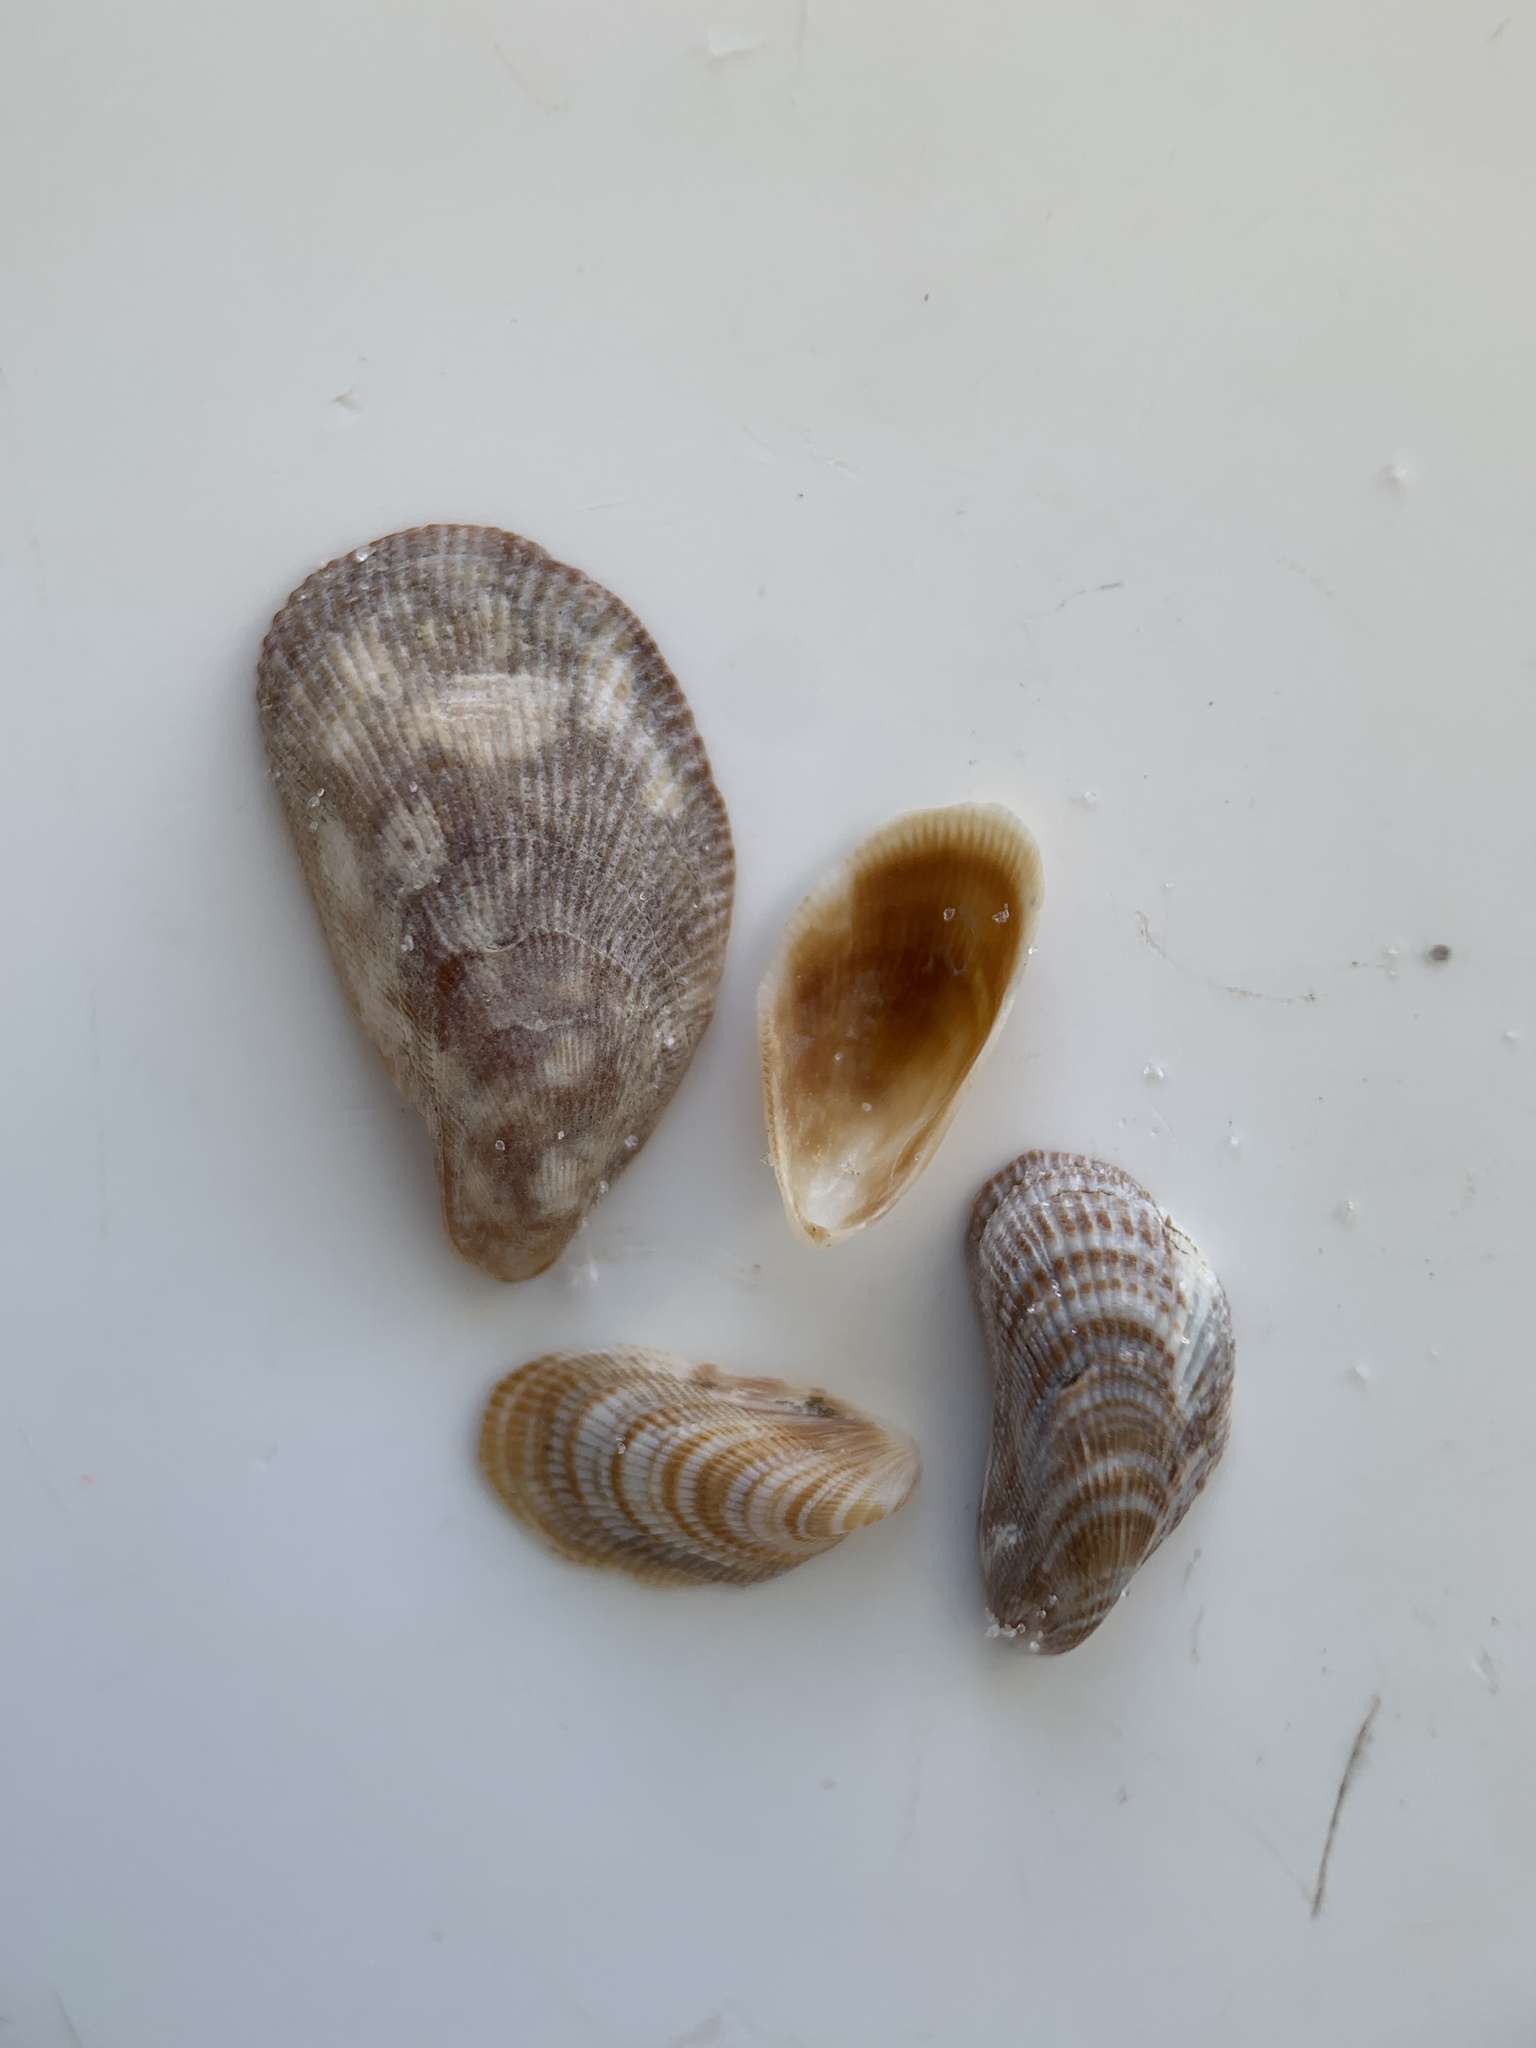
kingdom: Animalia
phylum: Mollusca
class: Bivalvia
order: Mytilida
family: Mytilidae
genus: Brachidontes
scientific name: Brachidontes exustus
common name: Scorched mussel
